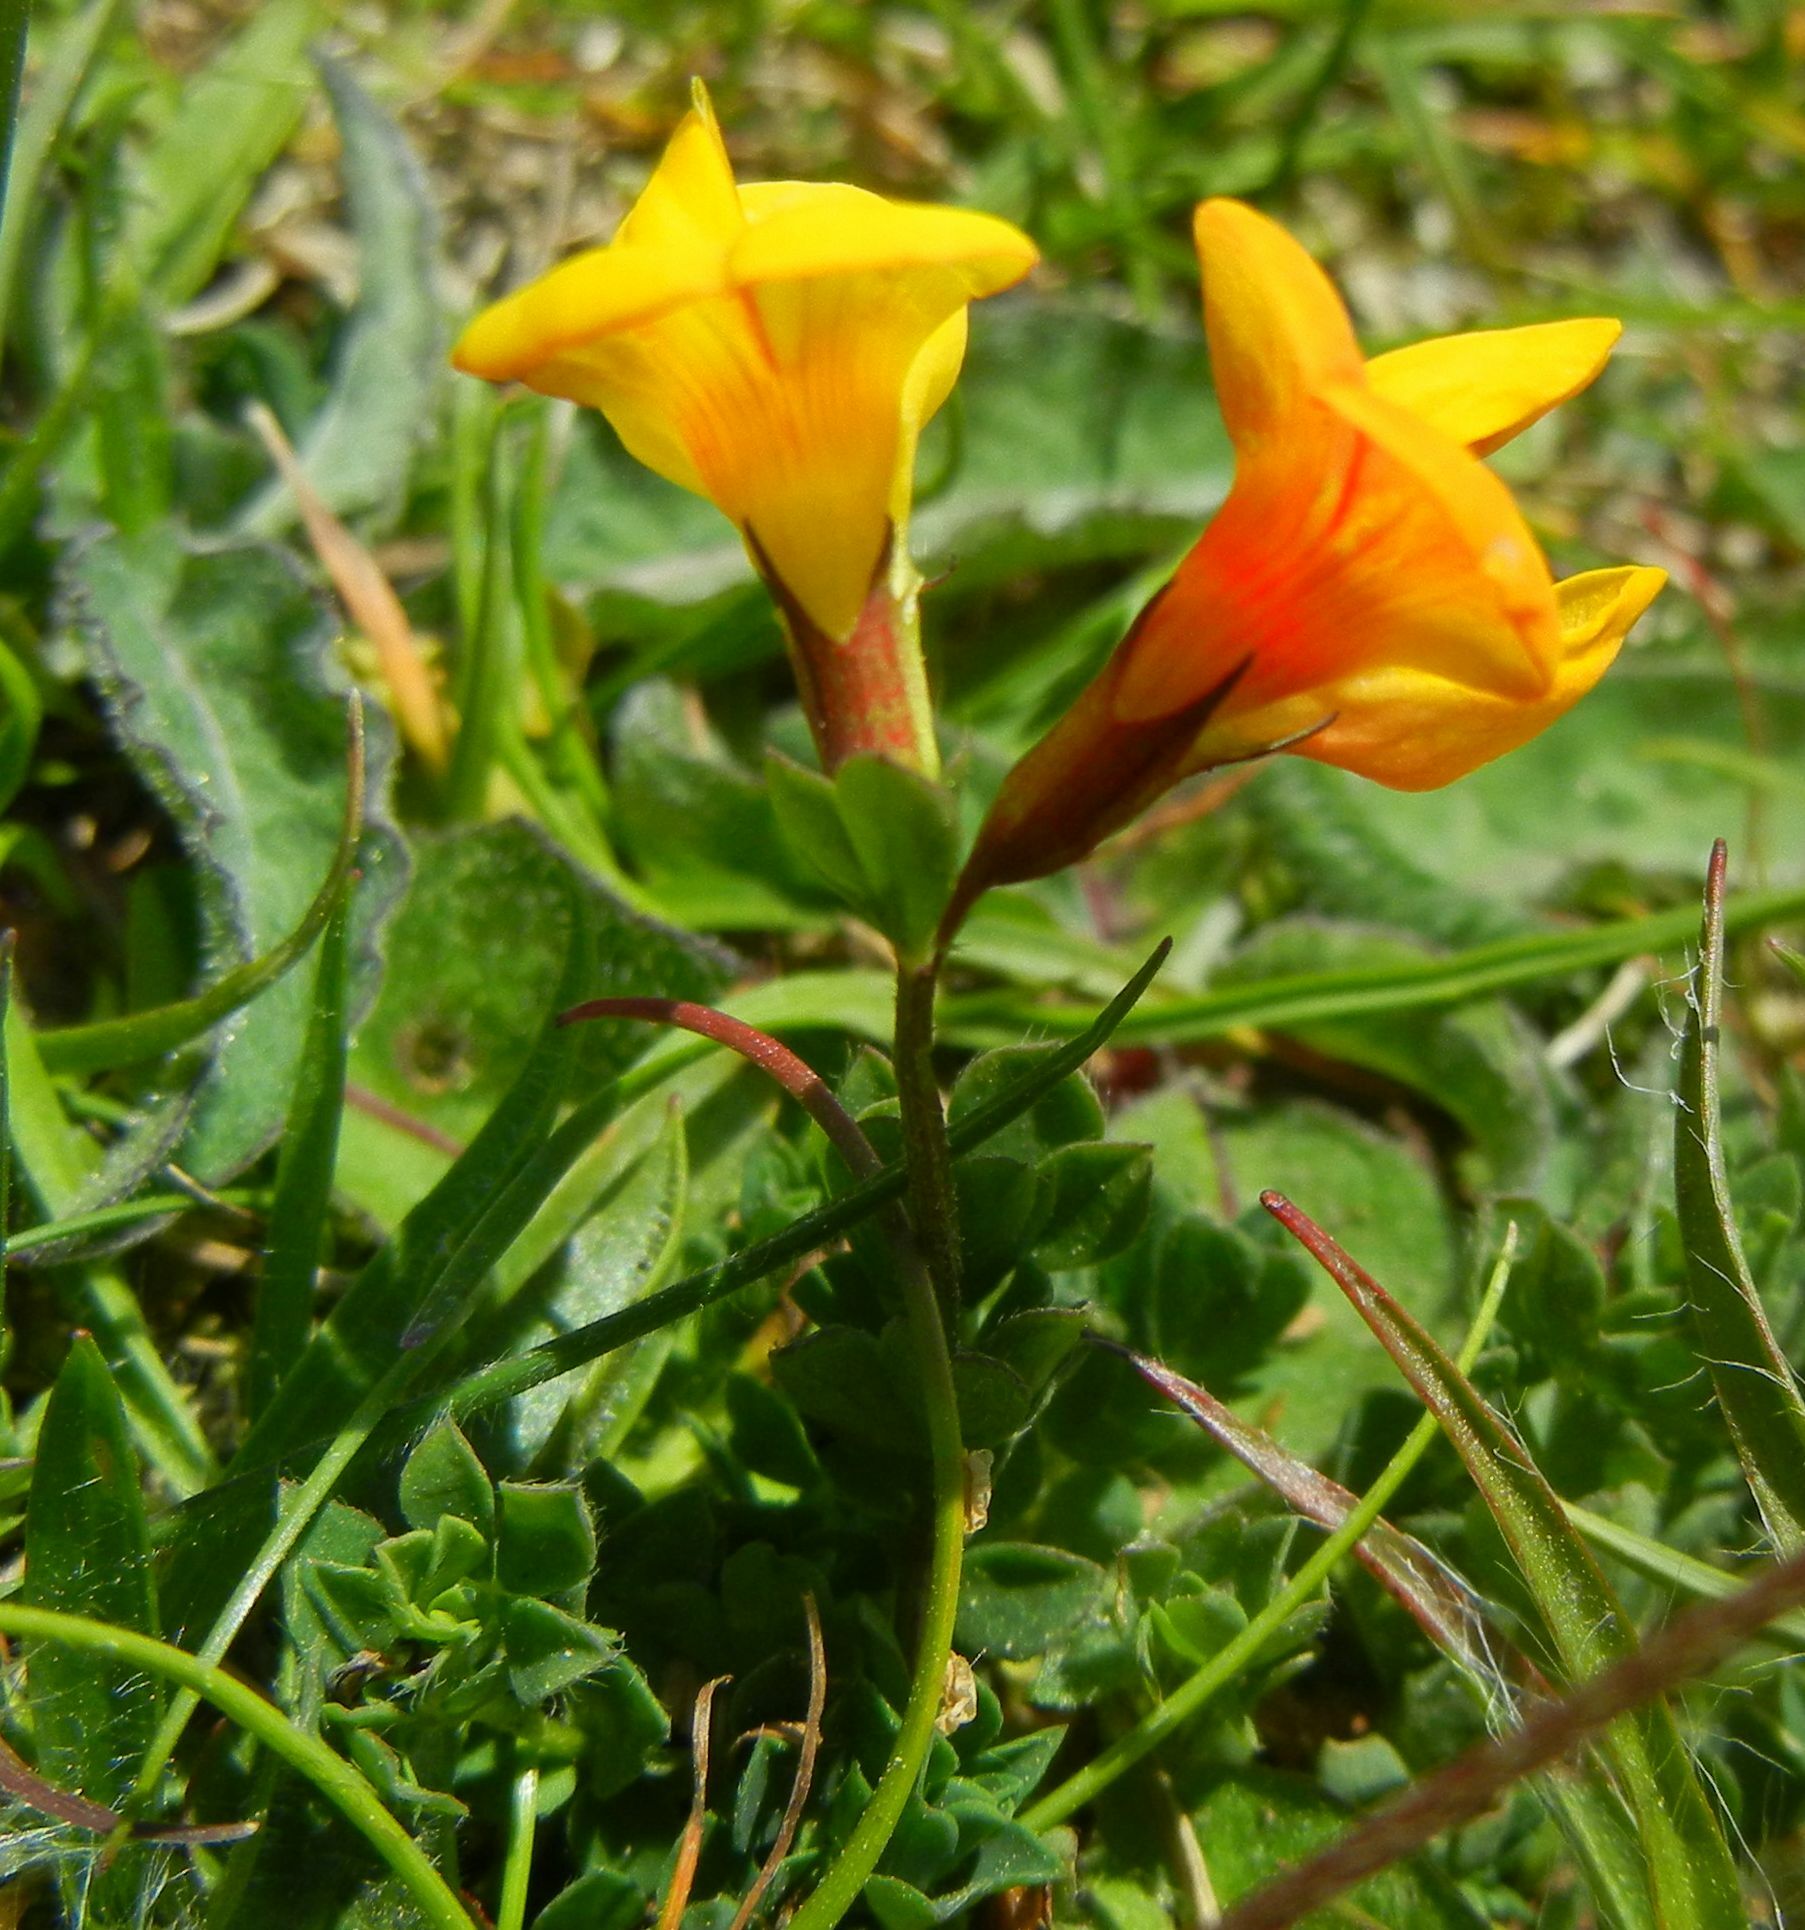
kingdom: Plantae
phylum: Tracheophyta
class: Magnoliopsida
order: Fabales
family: Fabaceae
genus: Lotus
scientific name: Lotus corniculatus
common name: Common bird's-foot-trefoil
